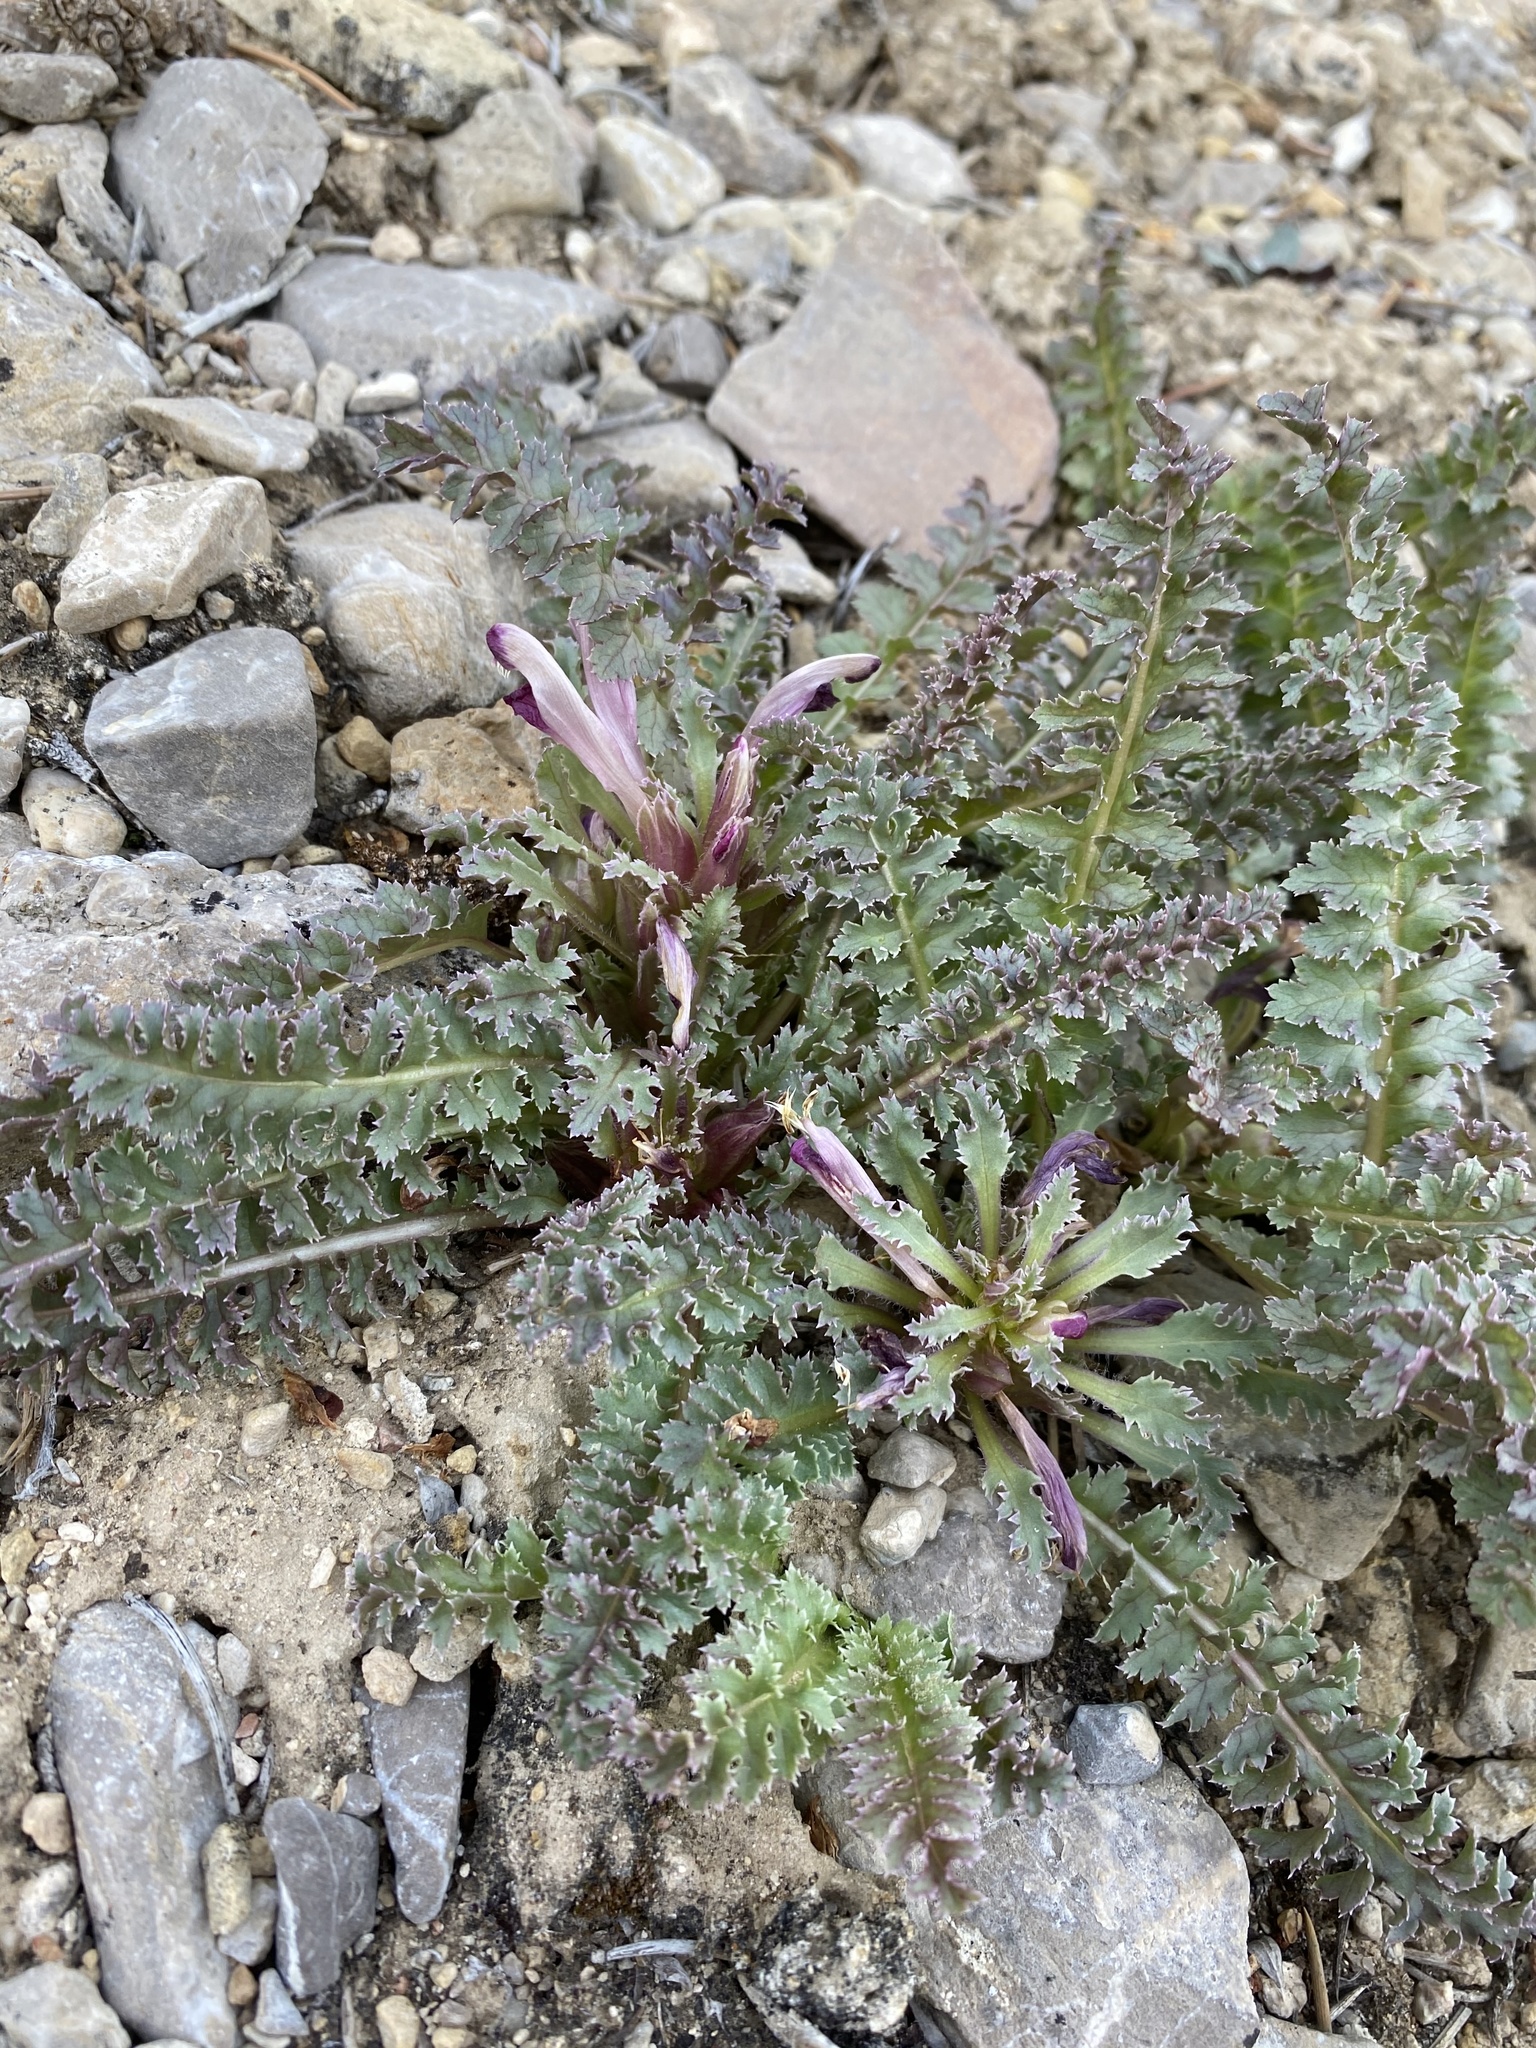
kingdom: Plantae
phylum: Tracheophyta
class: Magnoliopsida
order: Lamiales
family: Orobanchaceae
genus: Pedicularis
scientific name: Pedicularis centranthera
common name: Dwarf lousewort
